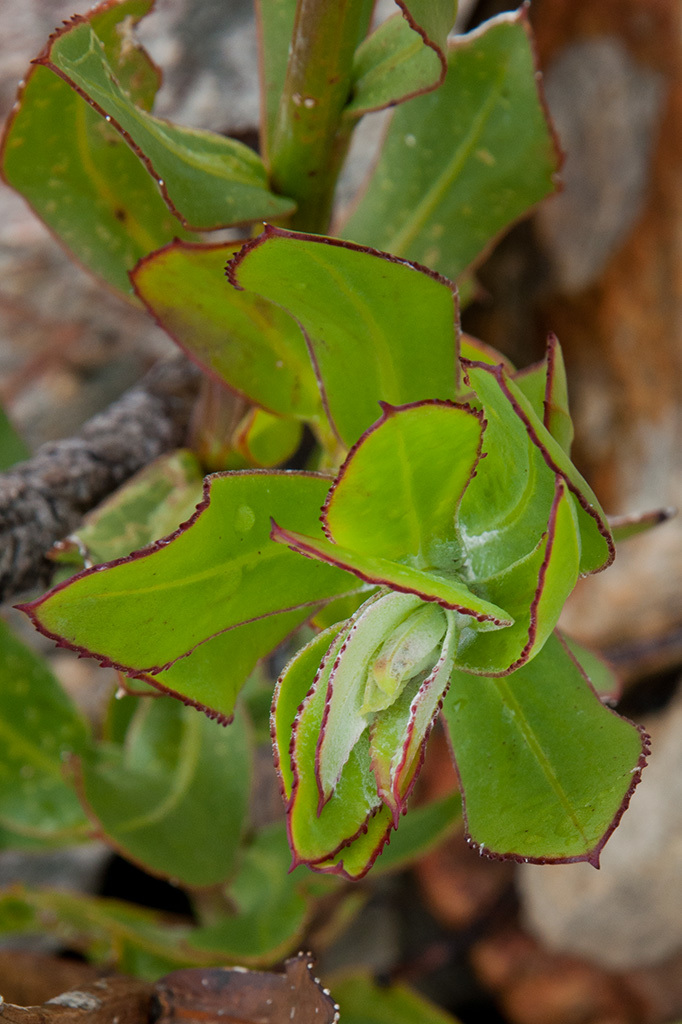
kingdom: Plantae
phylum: Tracheophyta
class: Magnoliopsida
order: Asterales
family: Asteraceae
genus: Osteospermum
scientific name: Osteospermum junceum
